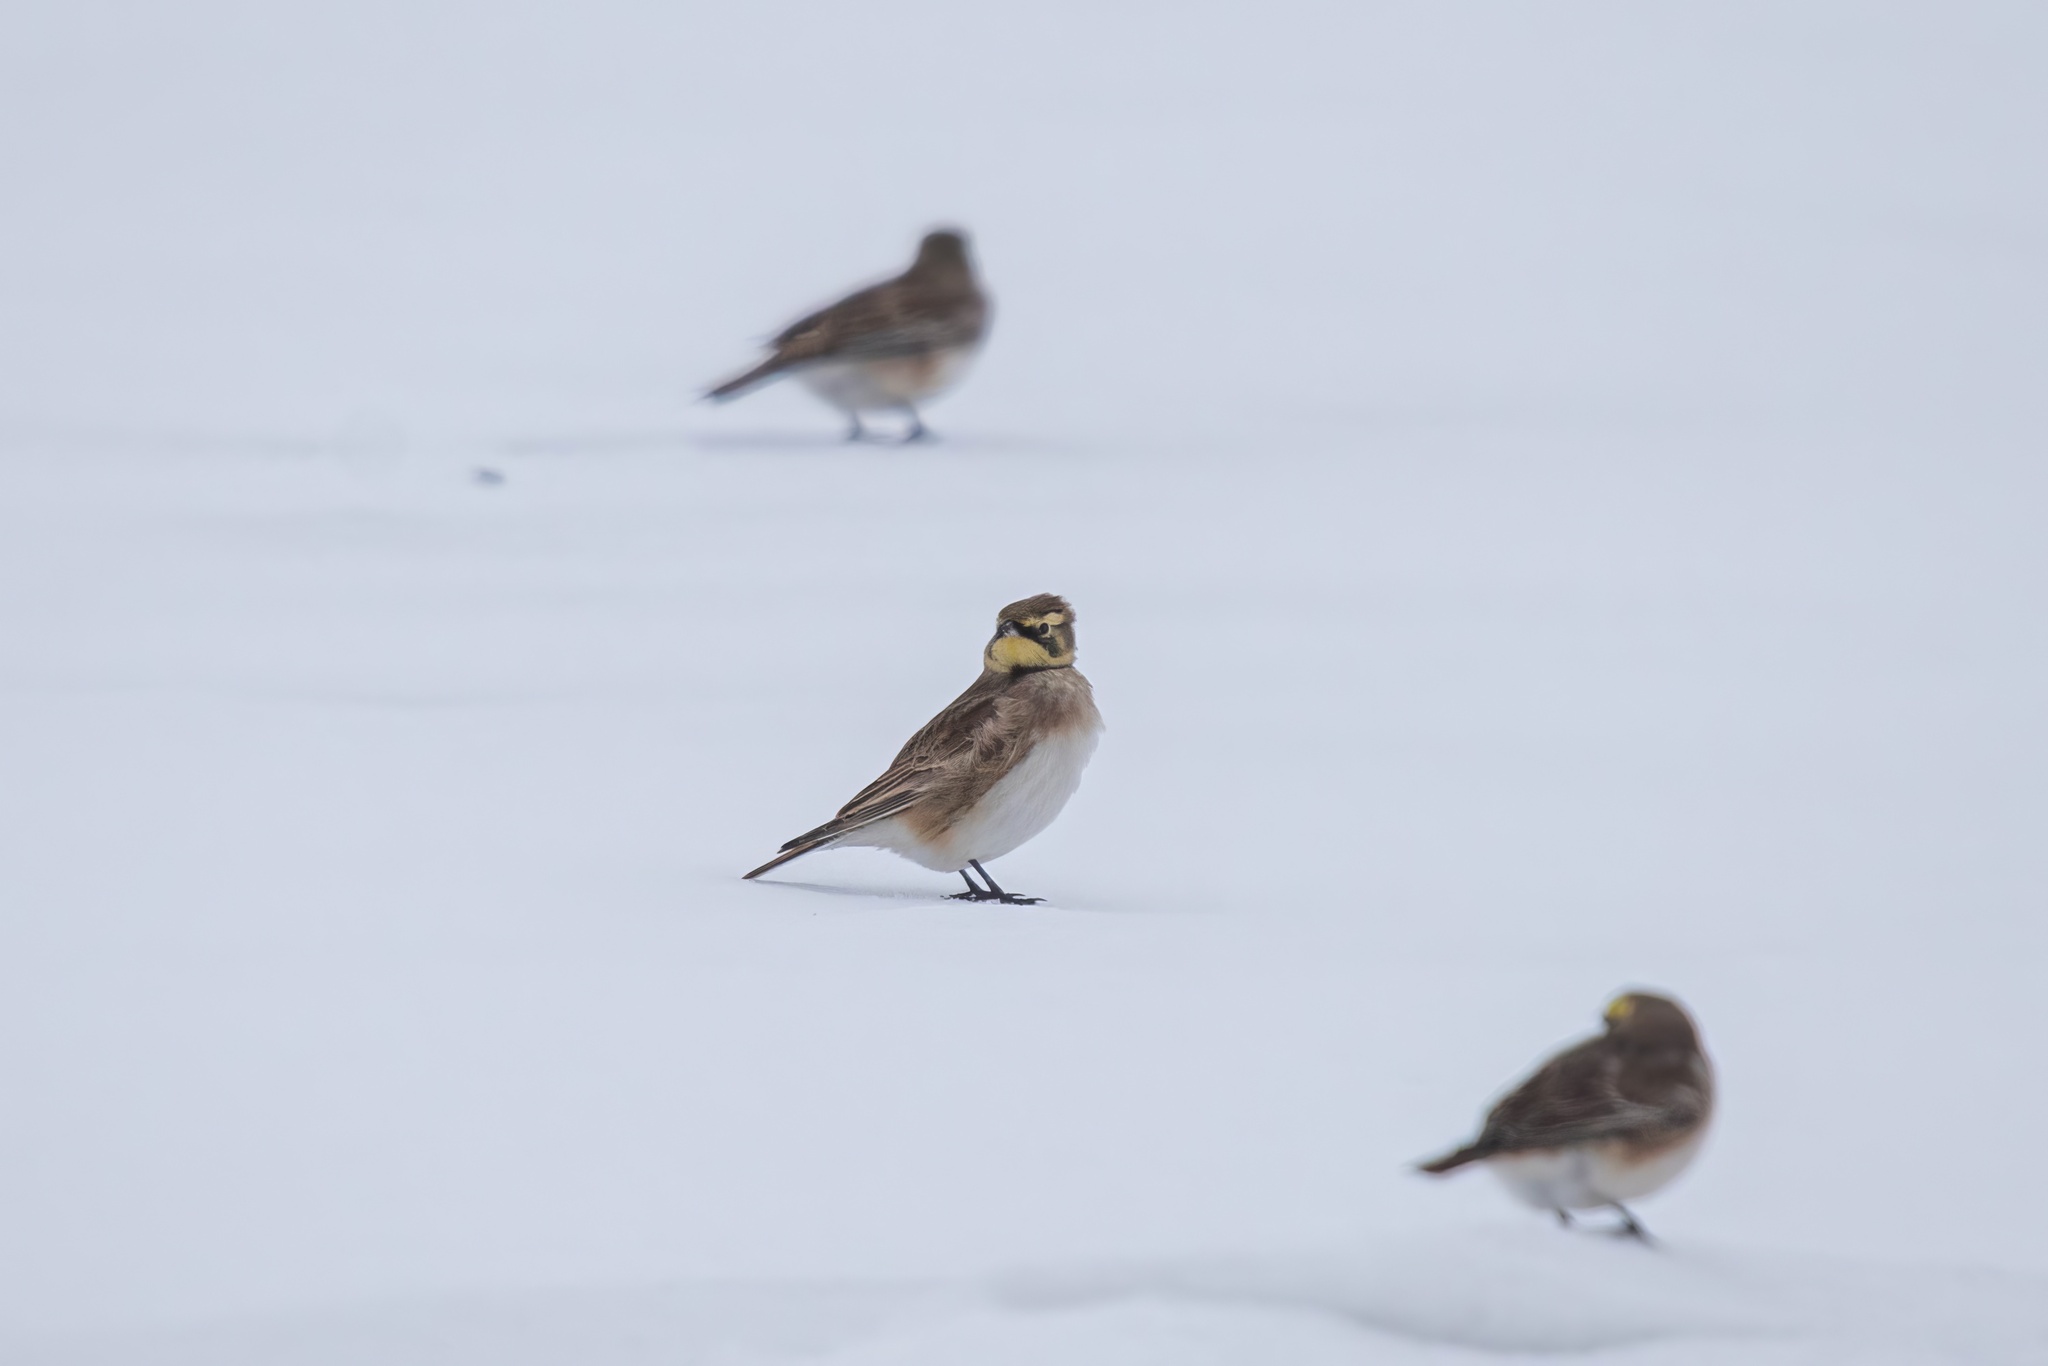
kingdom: Animalia
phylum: Chordata
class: Aves
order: Passeriformes
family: Alaudidae
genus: Eremophila
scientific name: Eremophila alpestris
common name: Horned lark
